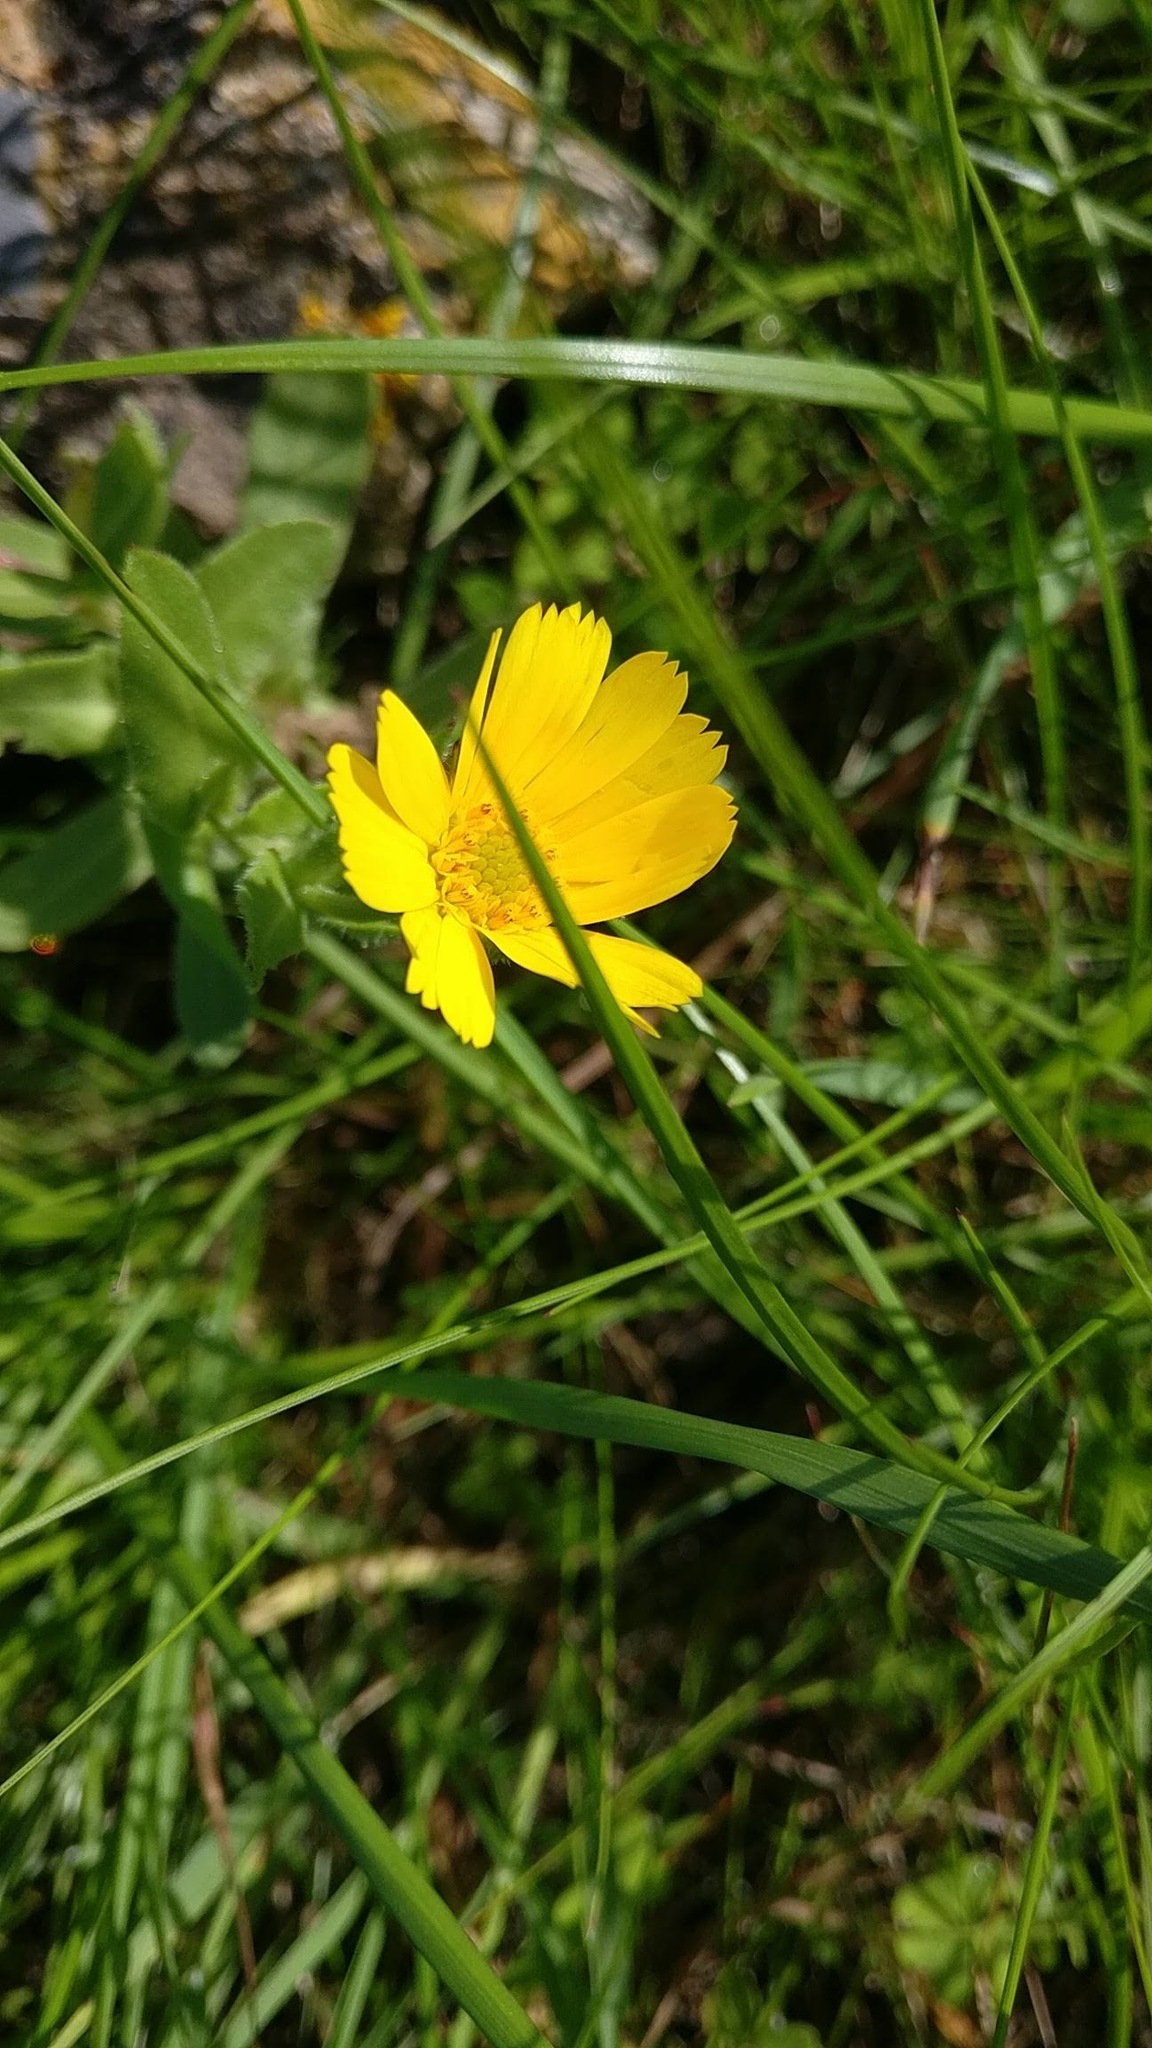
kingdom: Plantae
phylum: Tracheophyta
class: Magnoliopsida
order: Asterales
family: Asteraceae
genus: Calendula
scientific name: Calendula arvensis
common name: Field marigold
